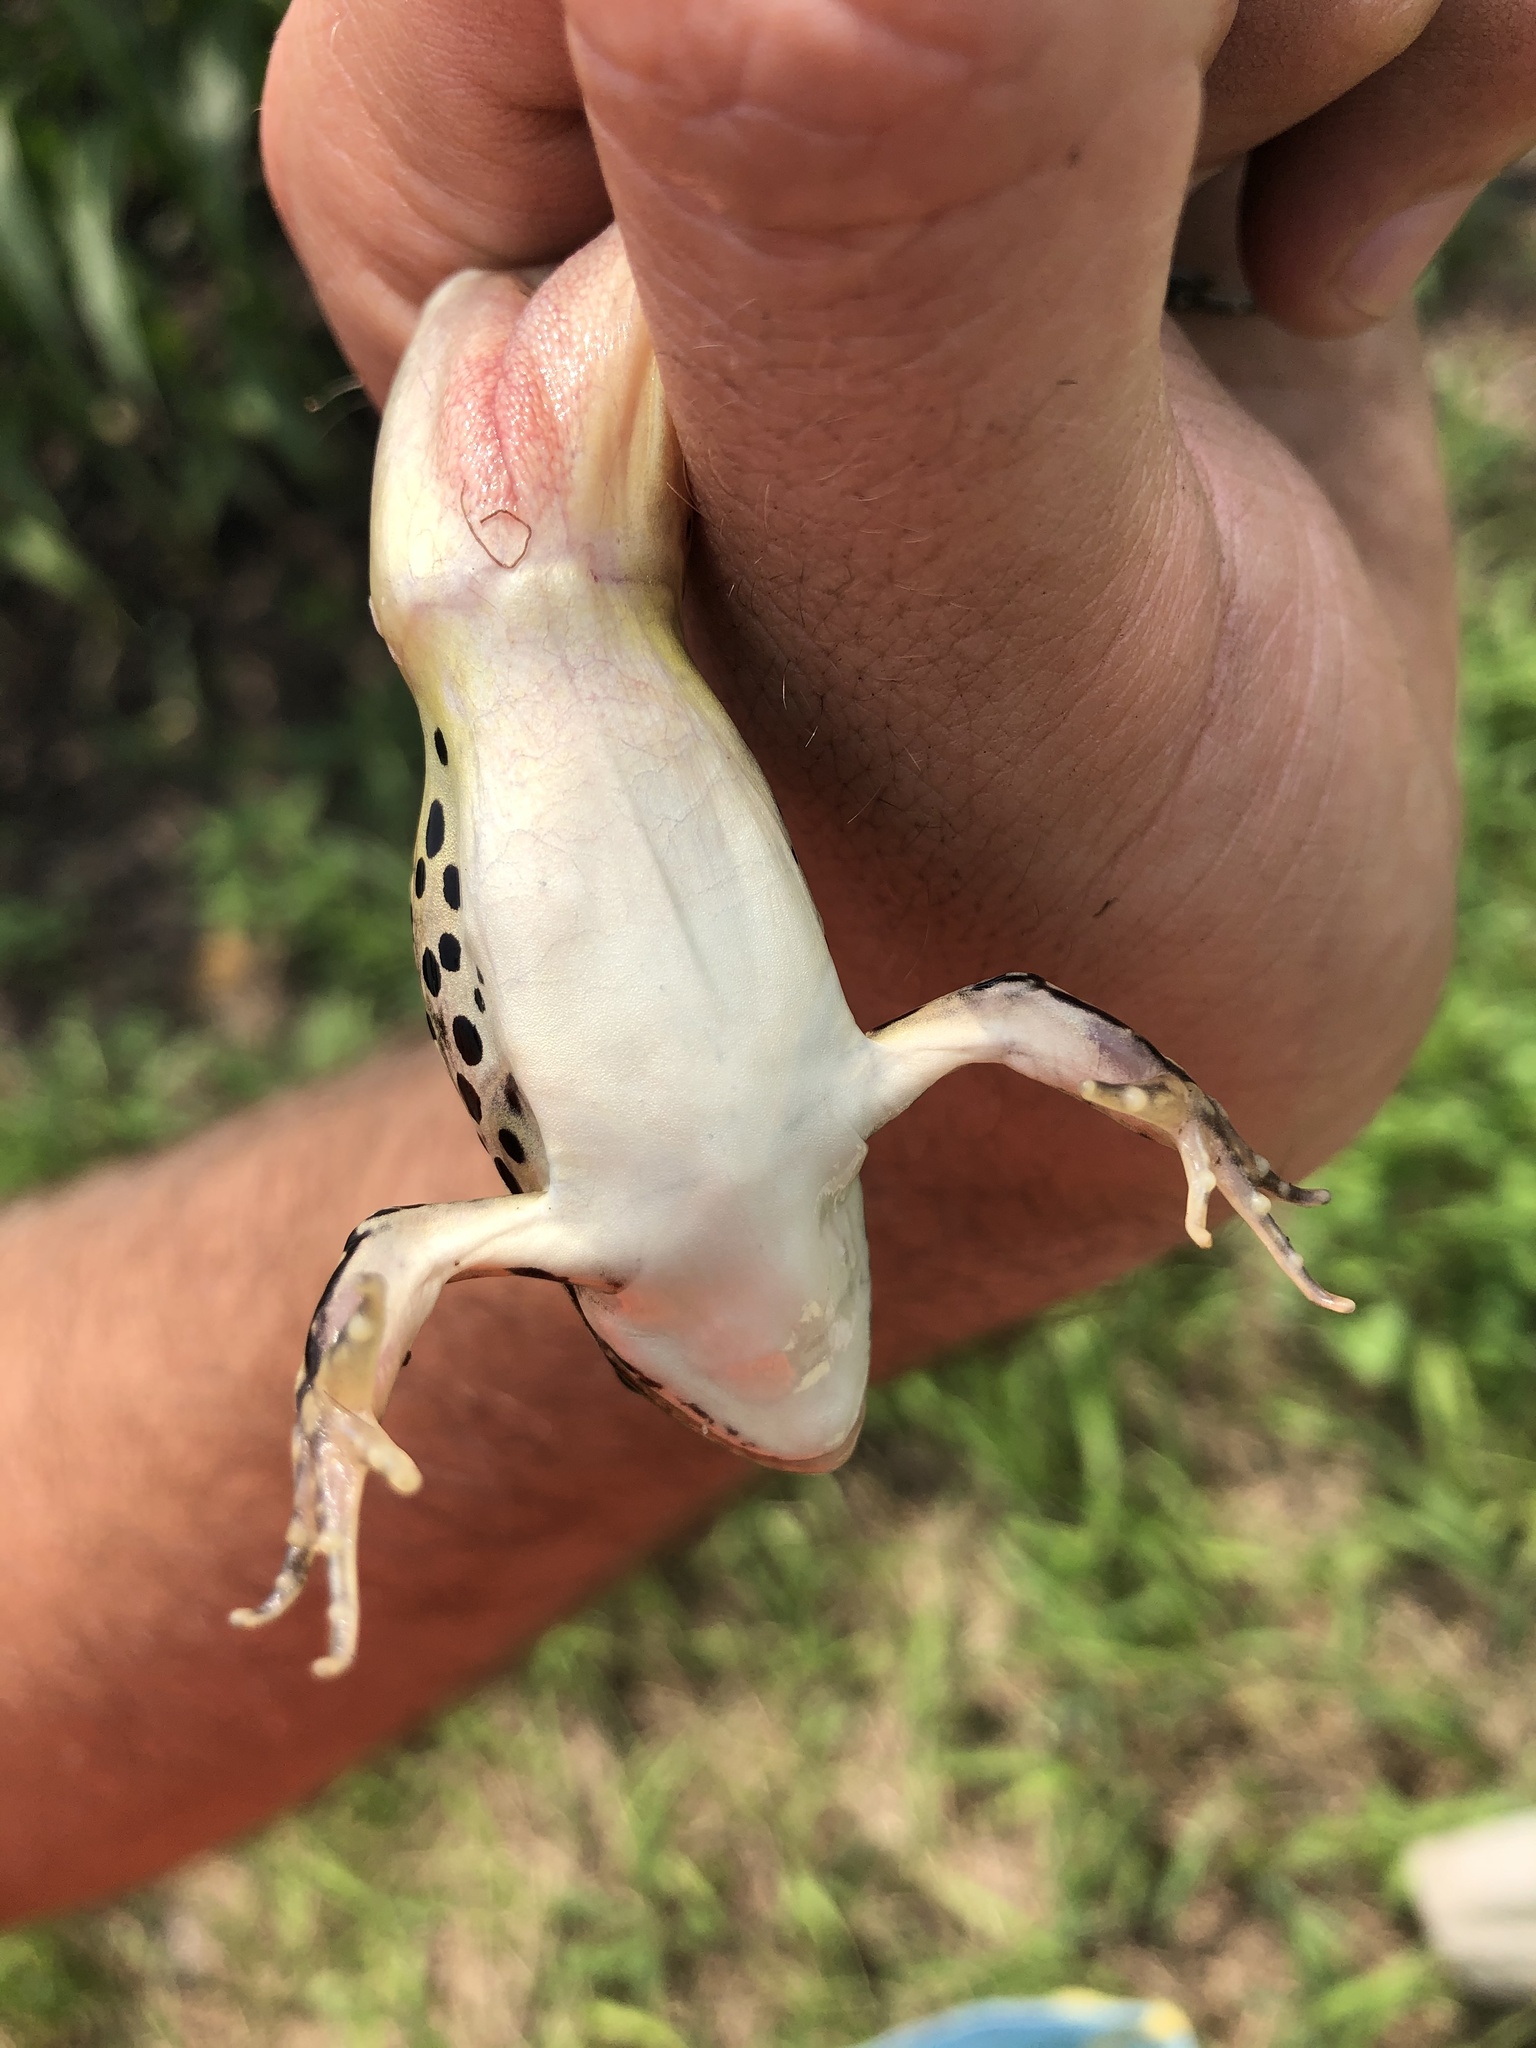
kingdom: Animalia
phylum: Chordata
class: Amphibia
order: Anura
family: Ranidae
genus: Lithobates
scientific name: Lithobates pipiens
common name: Northern leopard frog
